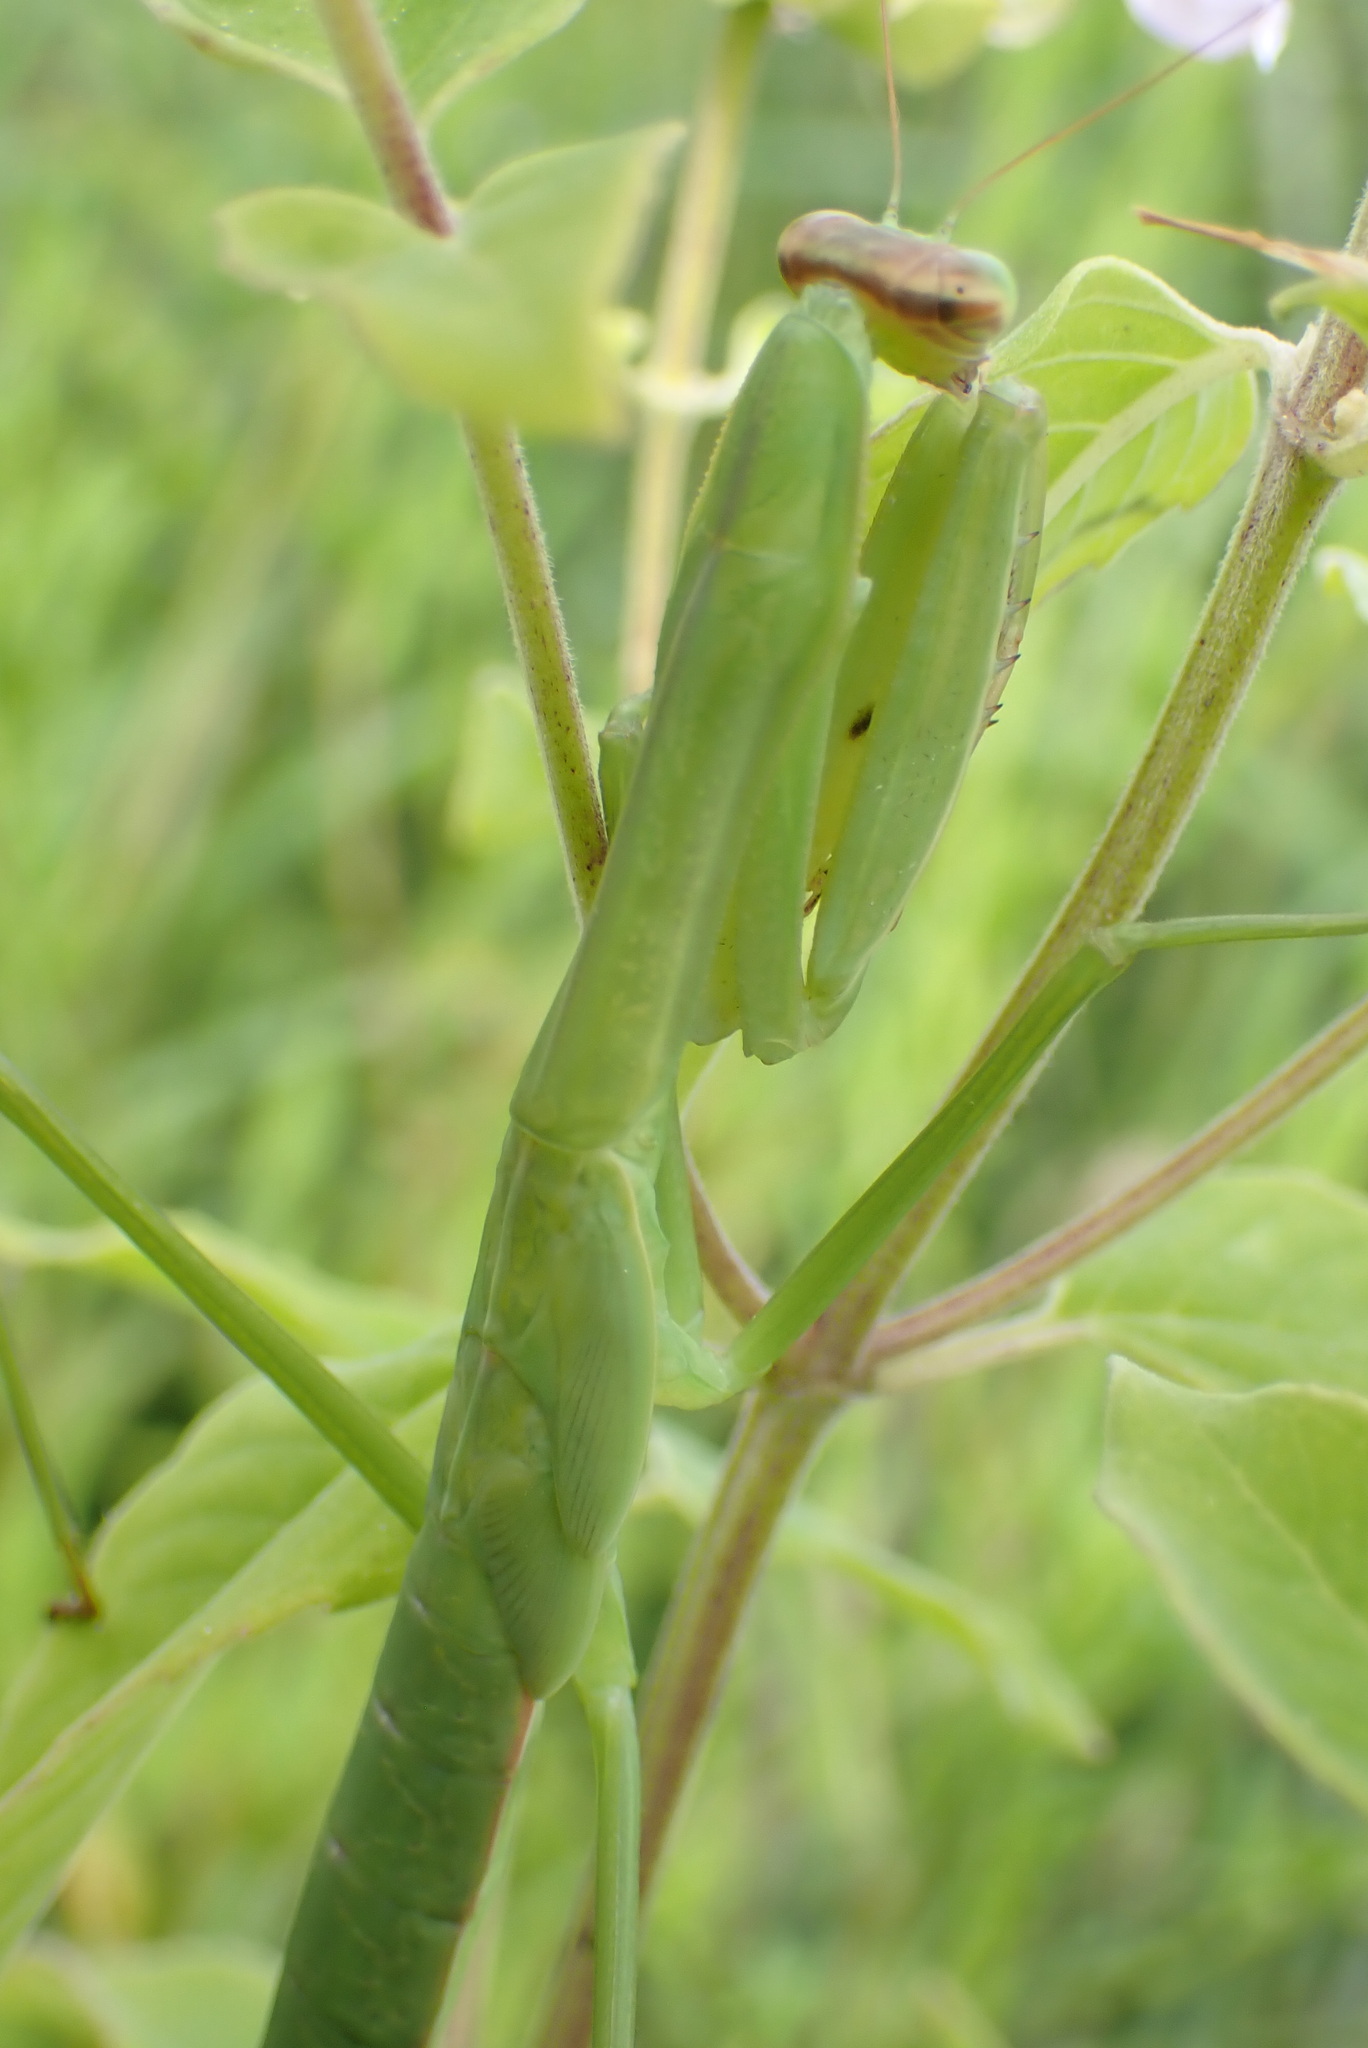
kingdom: Animalia
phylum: Arthropoda
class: Insecta
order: Mantodea
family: Mantidae
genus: Tenodera
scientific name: Tenodera sinensis
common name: Chinese mantis
